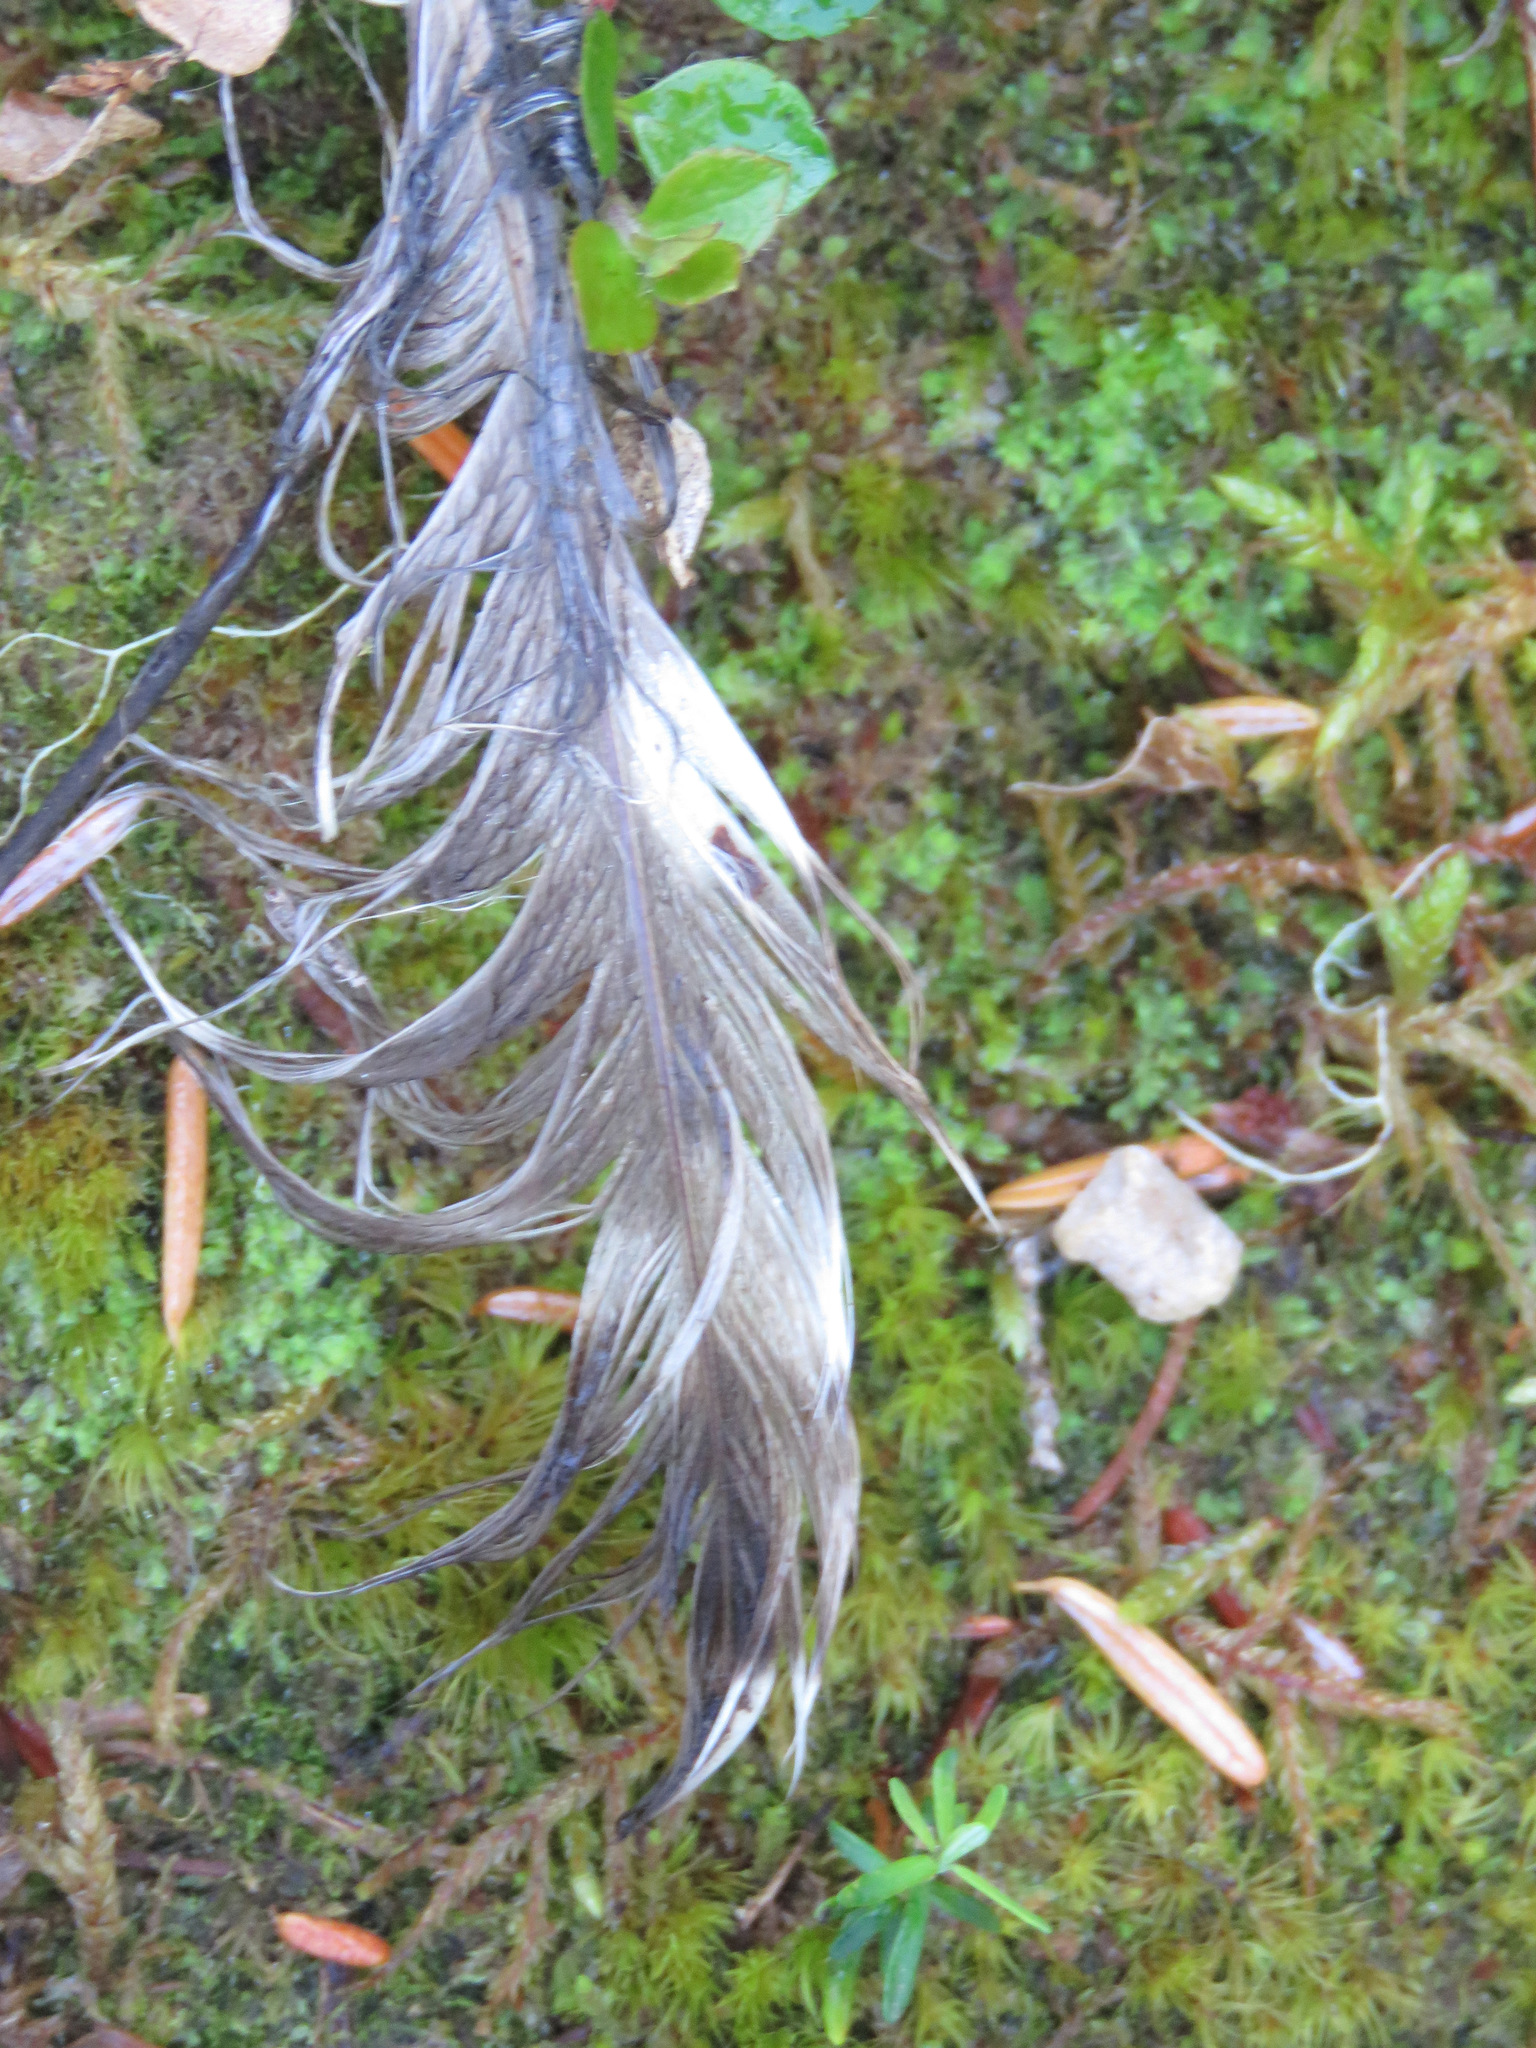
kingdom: Animalia
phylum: Chordata
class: Aves
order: Strigiformes
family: Strigidae
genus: Strix
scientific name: Strix varia
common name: Barred owl
